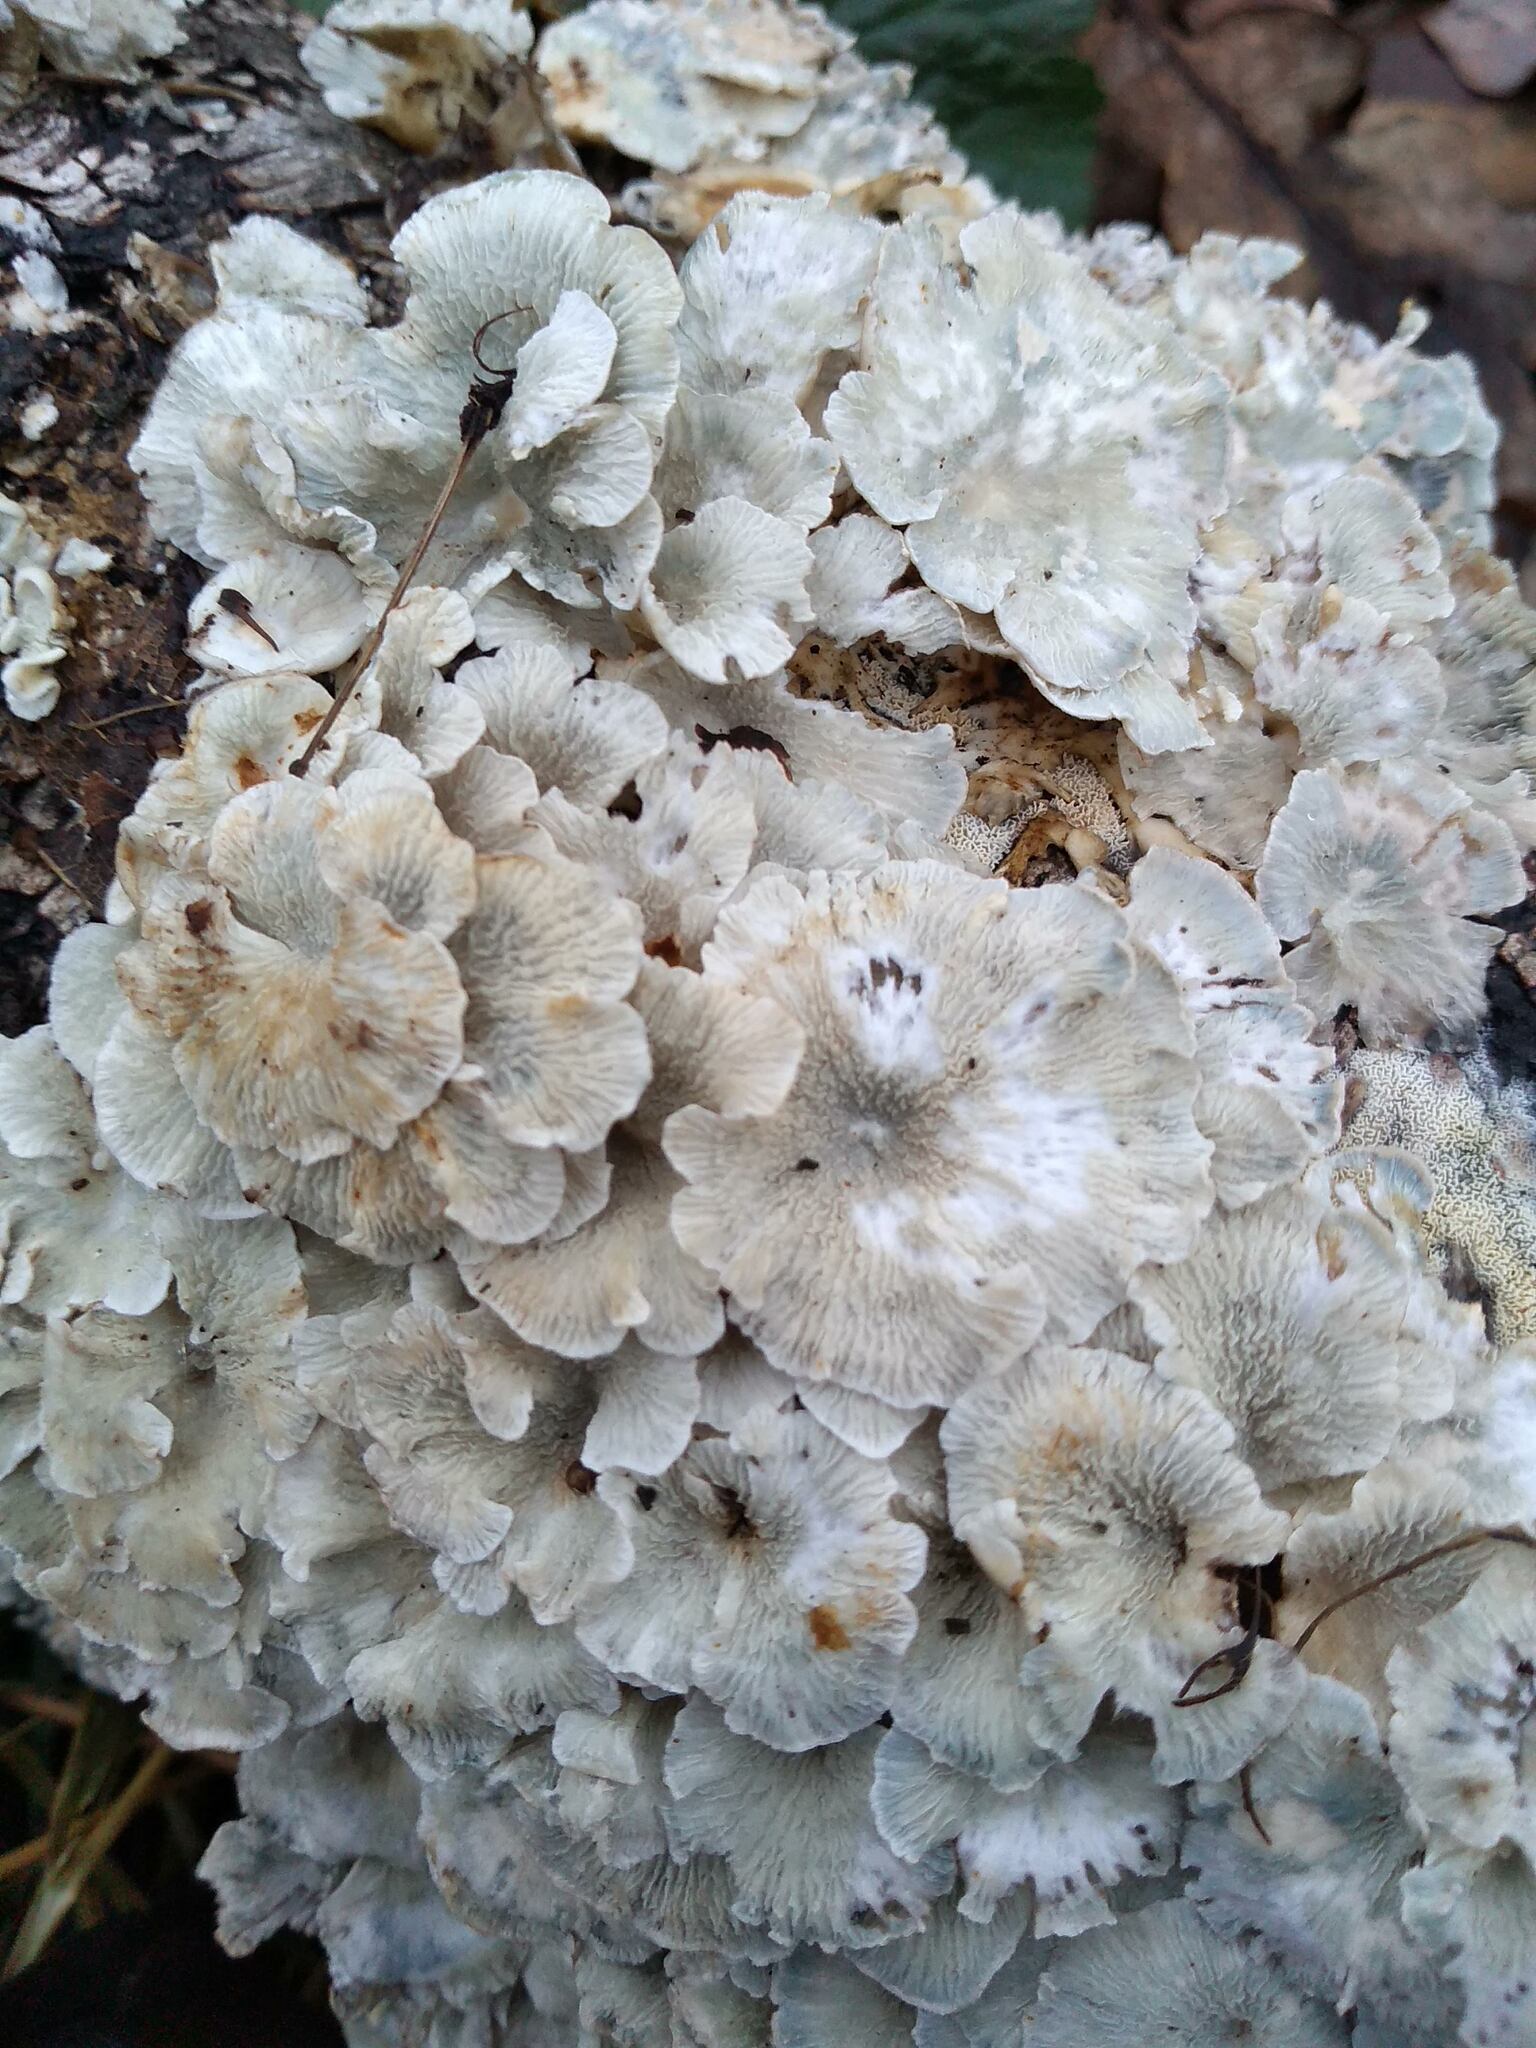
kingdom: Fungi
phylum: Basidiomycota
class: Agaricomycetes
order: Amylocorticiales
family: Amylocorticiaceae
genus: Plicaturopsis
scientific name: Plicaturopsis crispa
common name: Crimped gill
